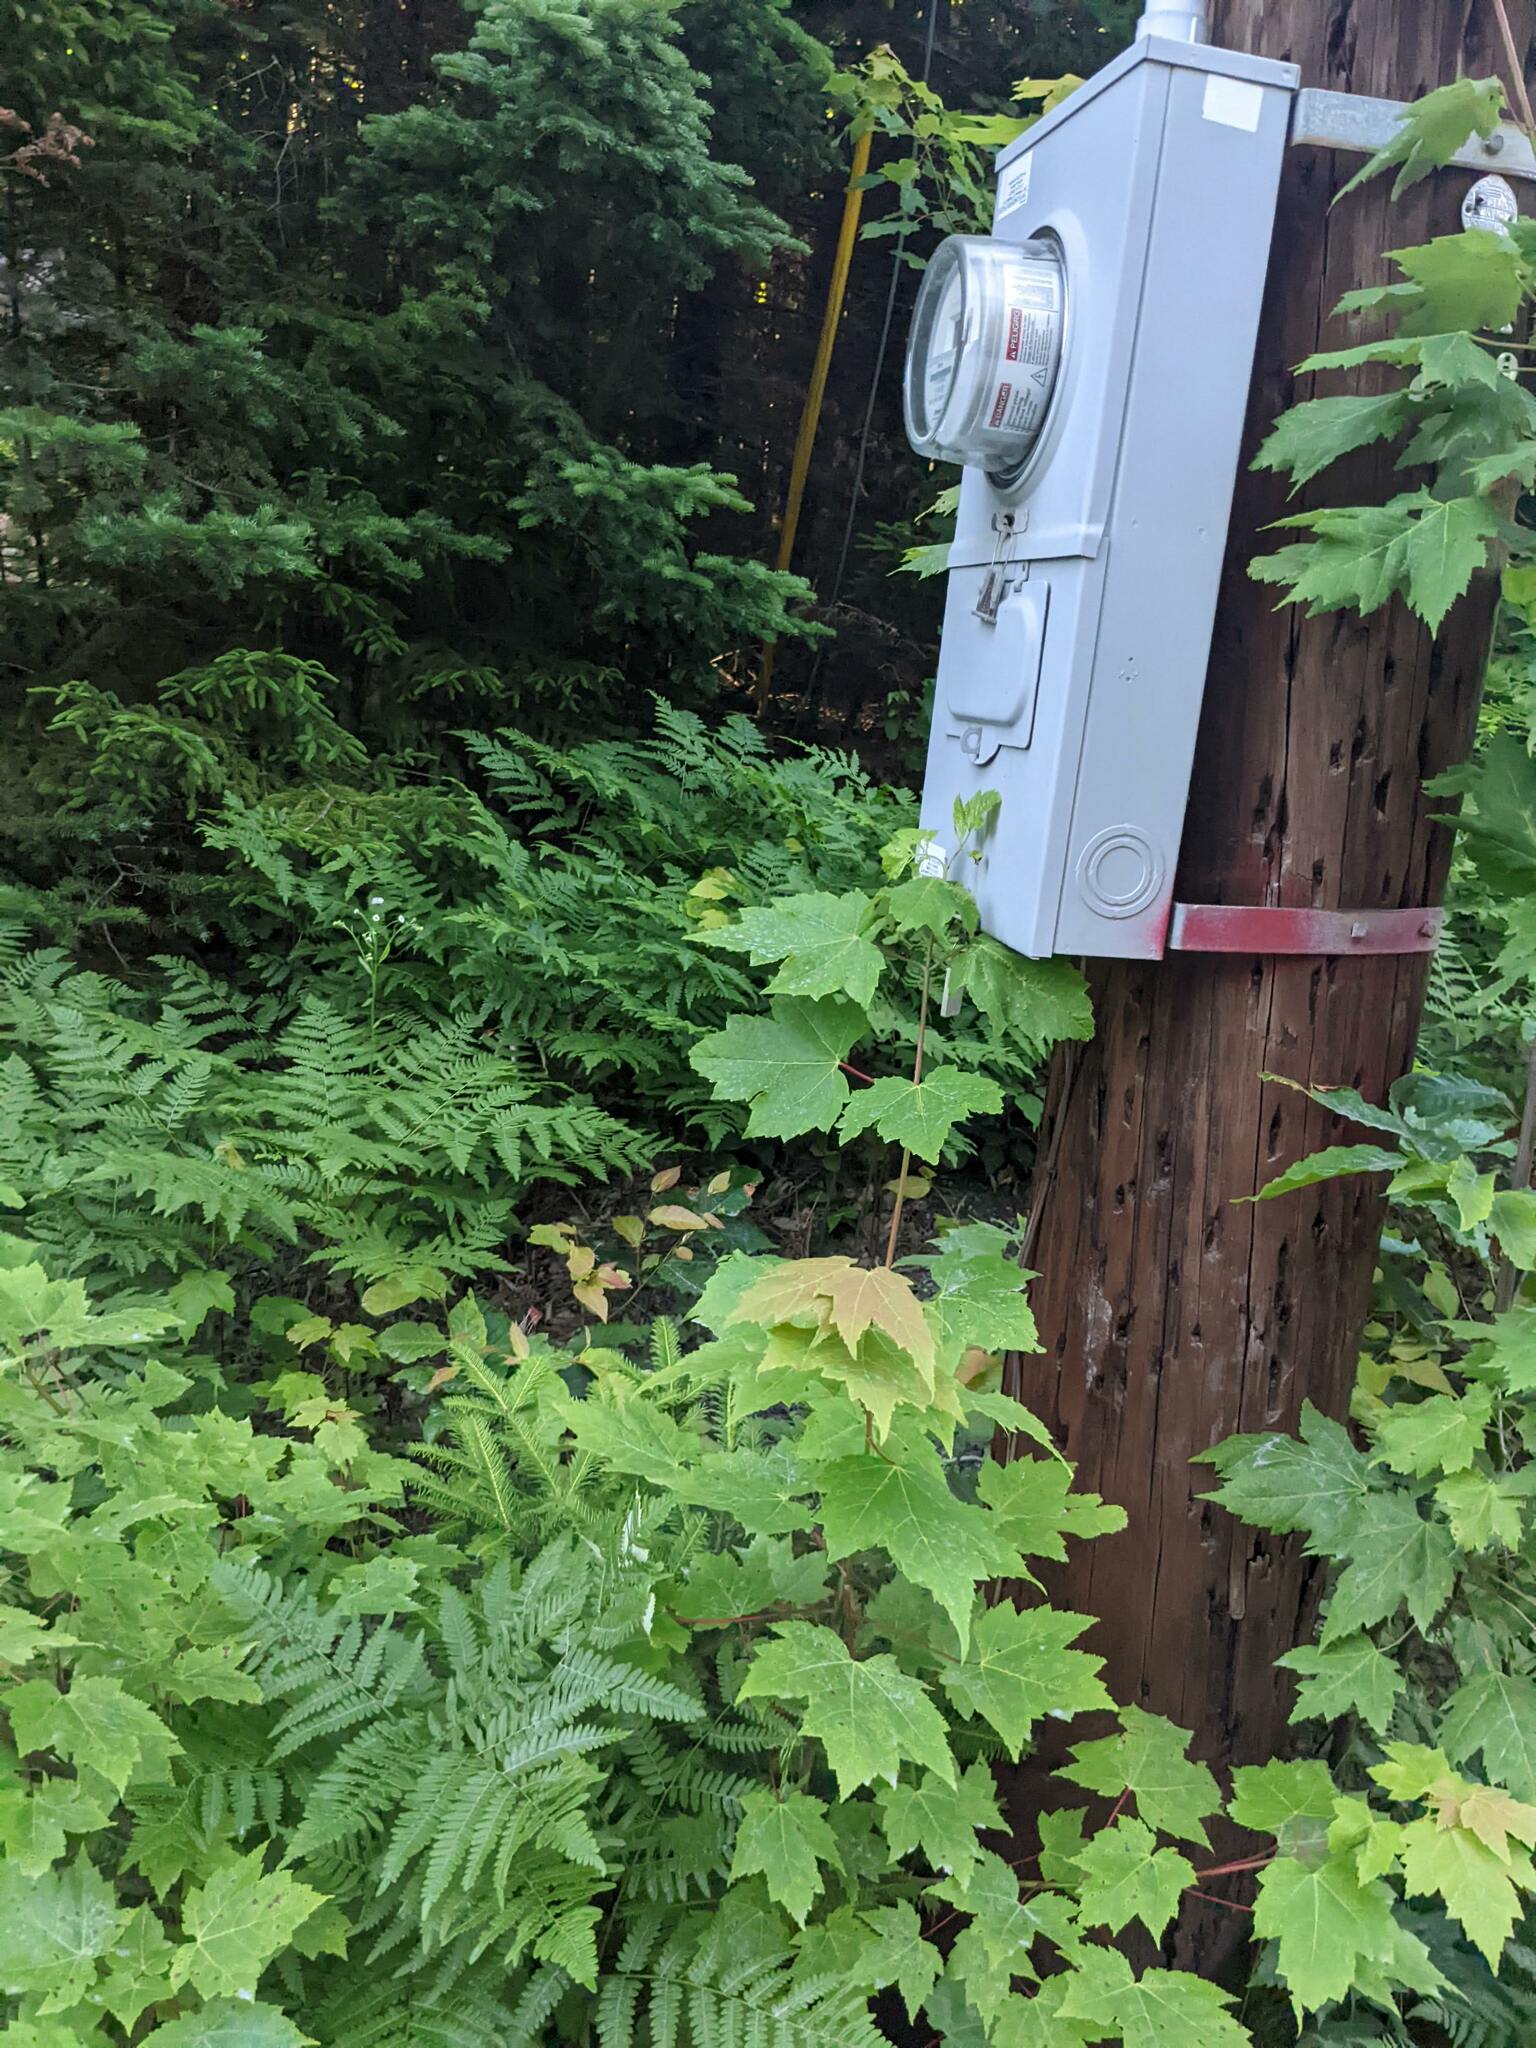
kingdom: Plantae
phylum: Tracheophyta
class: Magnoliopsida
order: Sapindales
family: Sapindaceae
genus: Acer
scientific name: Acer rubrum
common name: Red maple
